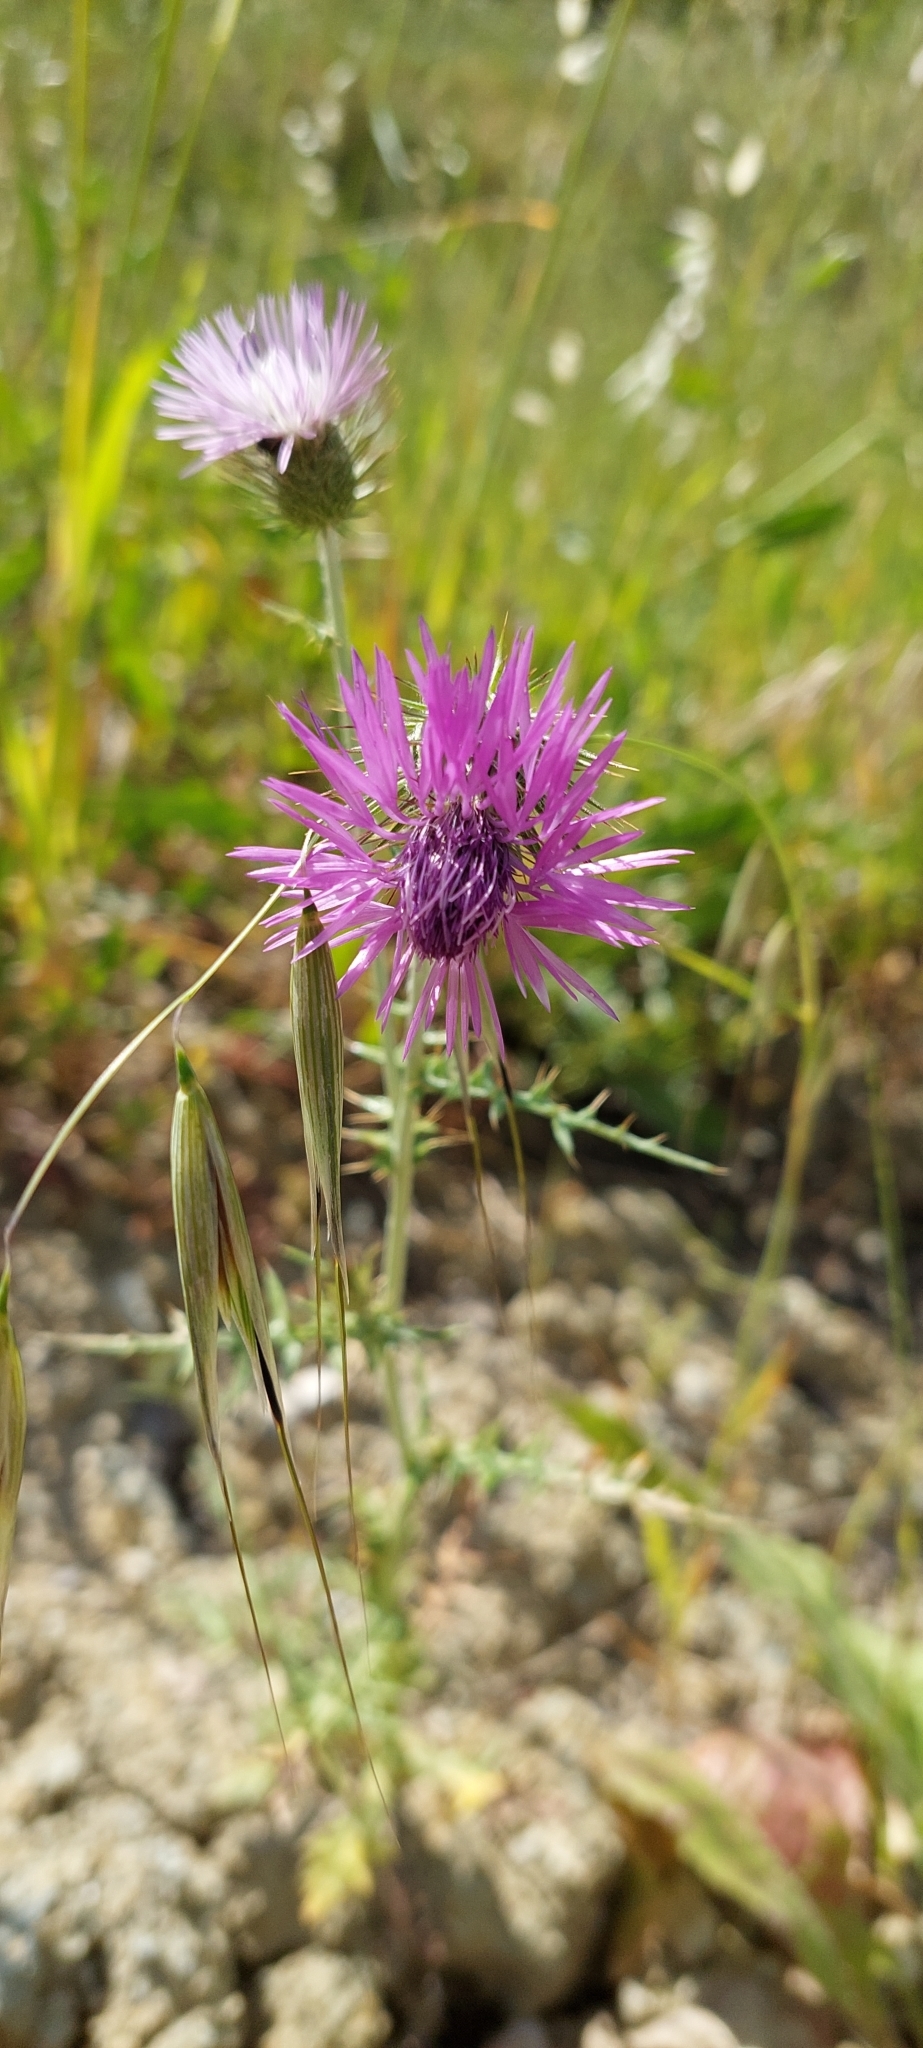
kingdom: Plantae
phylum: Tracheophyta
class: Magnoliopsida
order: Asterales
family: Asteraceae
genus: Galactites
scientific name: Galactites tomentosa
